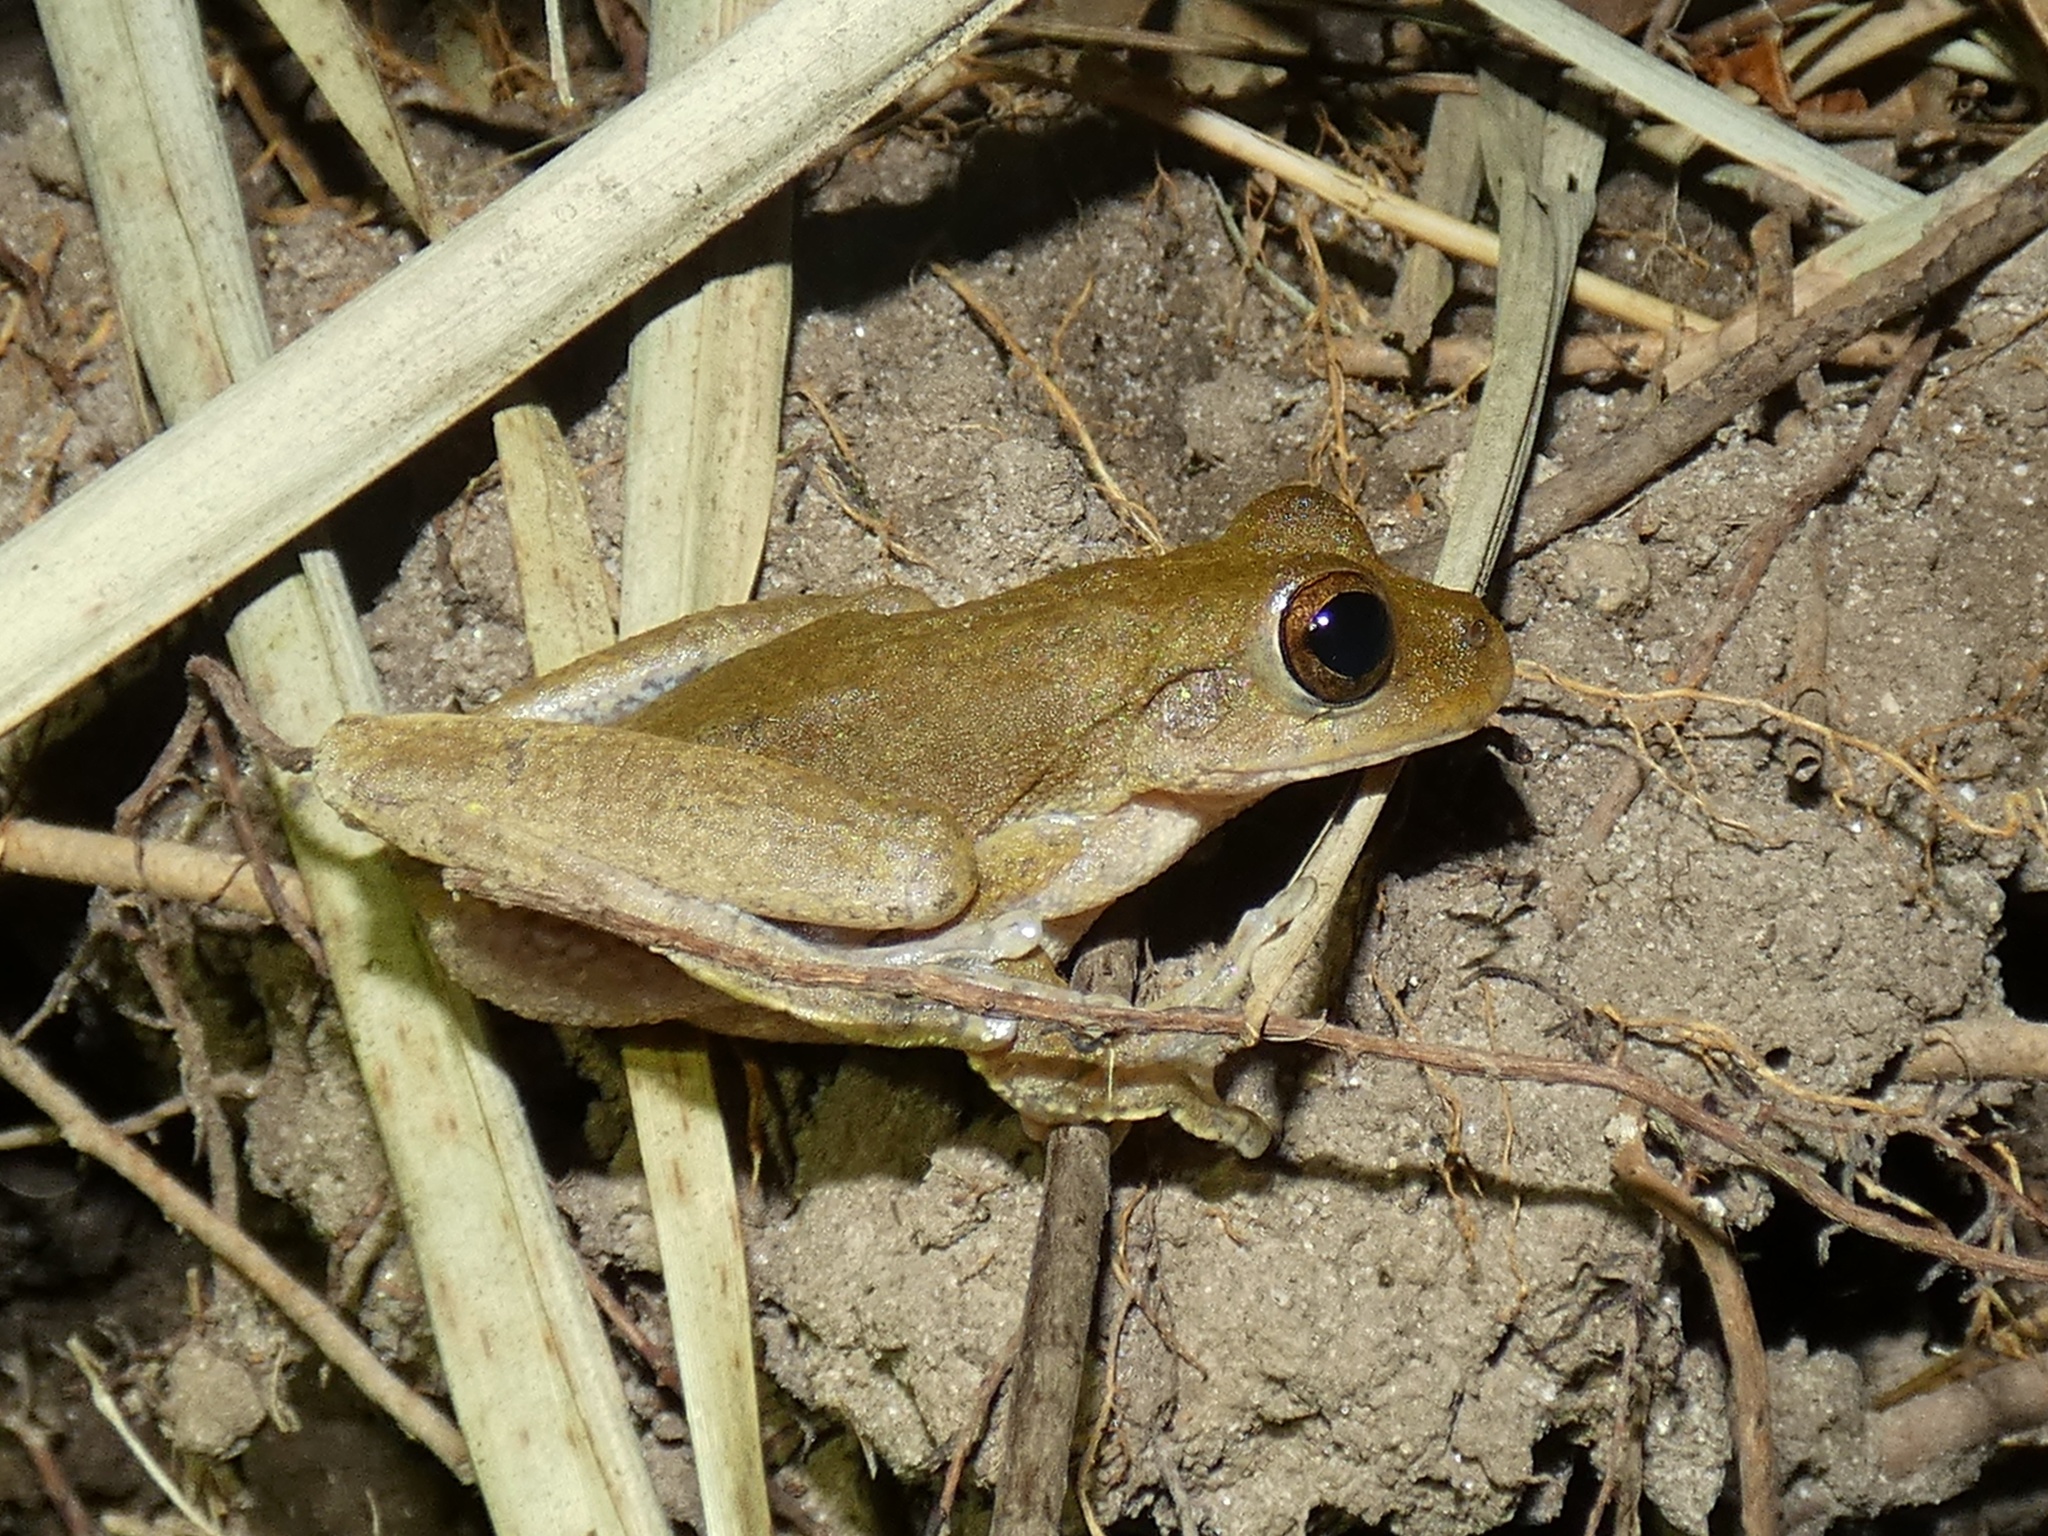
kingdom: Animalia
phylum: Chordata
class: Amphibia
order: Anura
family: Hylidae
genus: Smilisca
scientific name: Smilisca sordida
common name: Veragua cross-banded treefrog
